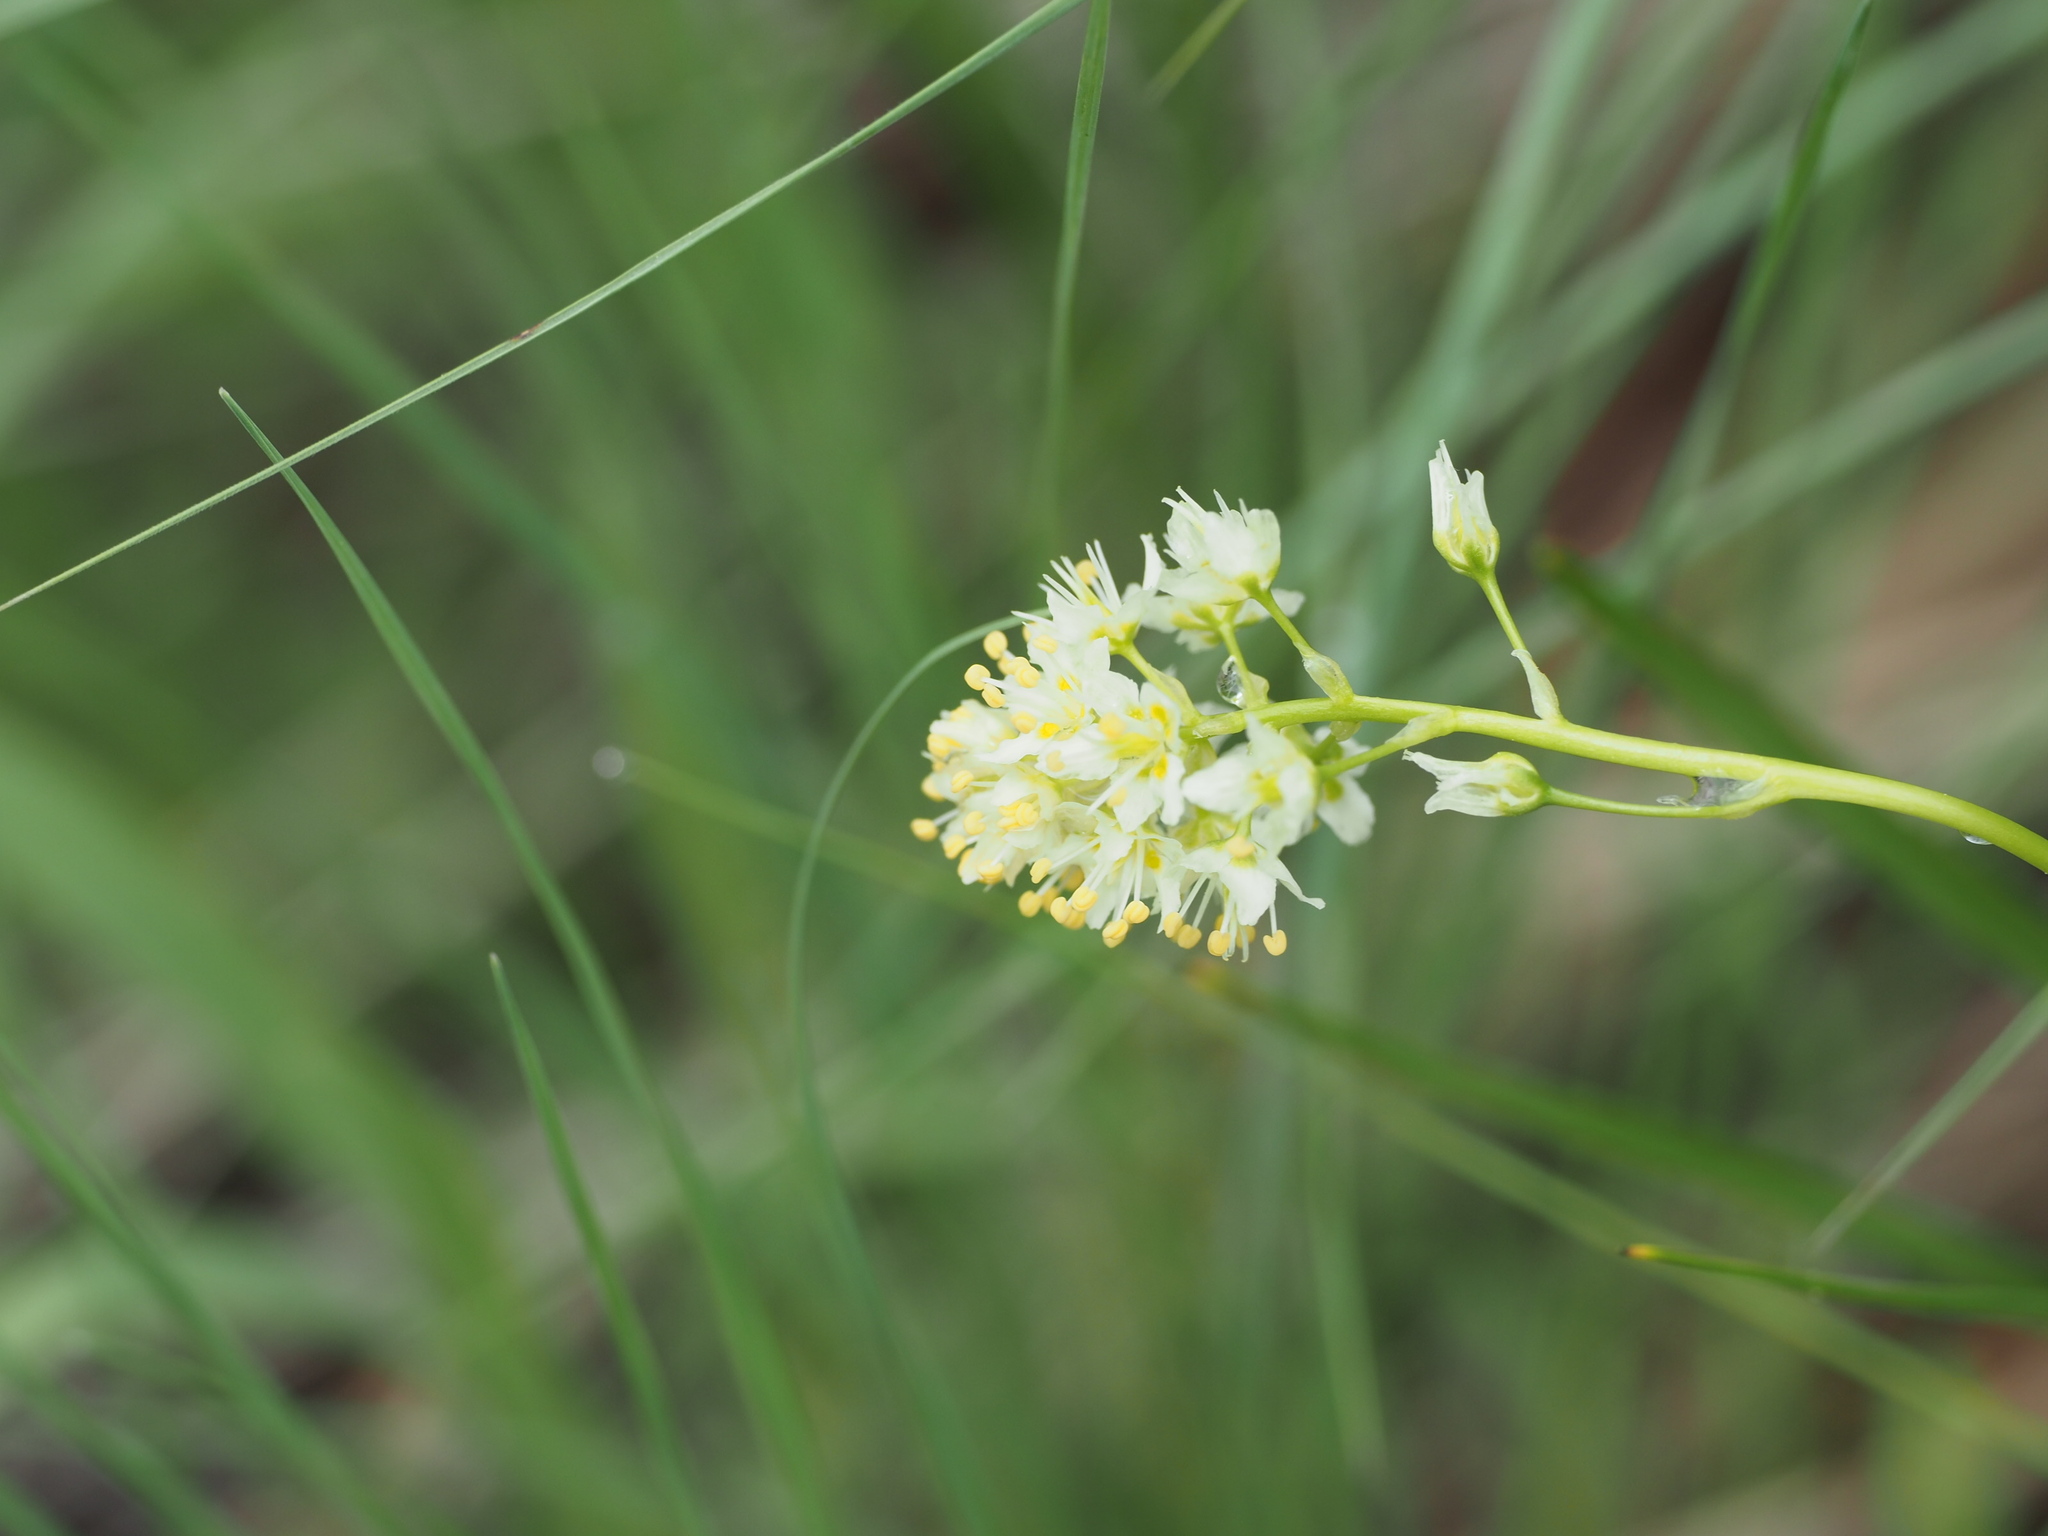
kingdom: Plantae
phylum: Tracheophyta
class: Liliopsida
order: Liliales
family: Melanthiaceae
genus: Toxicoscordion
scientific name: Toxicoscordion venenosum
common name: Meadow death camas
